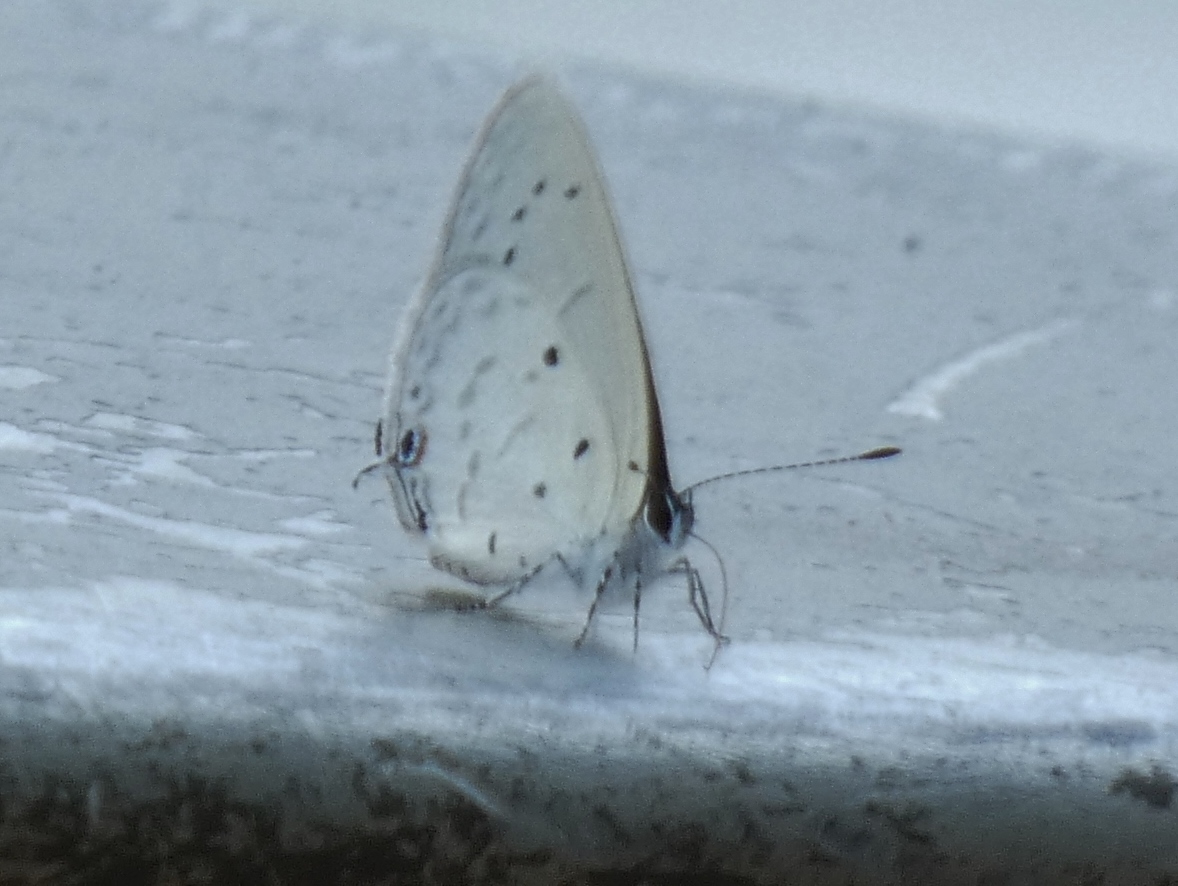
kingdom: Animalia
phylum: Arthropoda
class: Insecta
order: Lepidoptera
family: Lycaenidae
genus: Eicochrysops
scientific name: Eicochrysops hippocrates
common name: White-tipped blue
